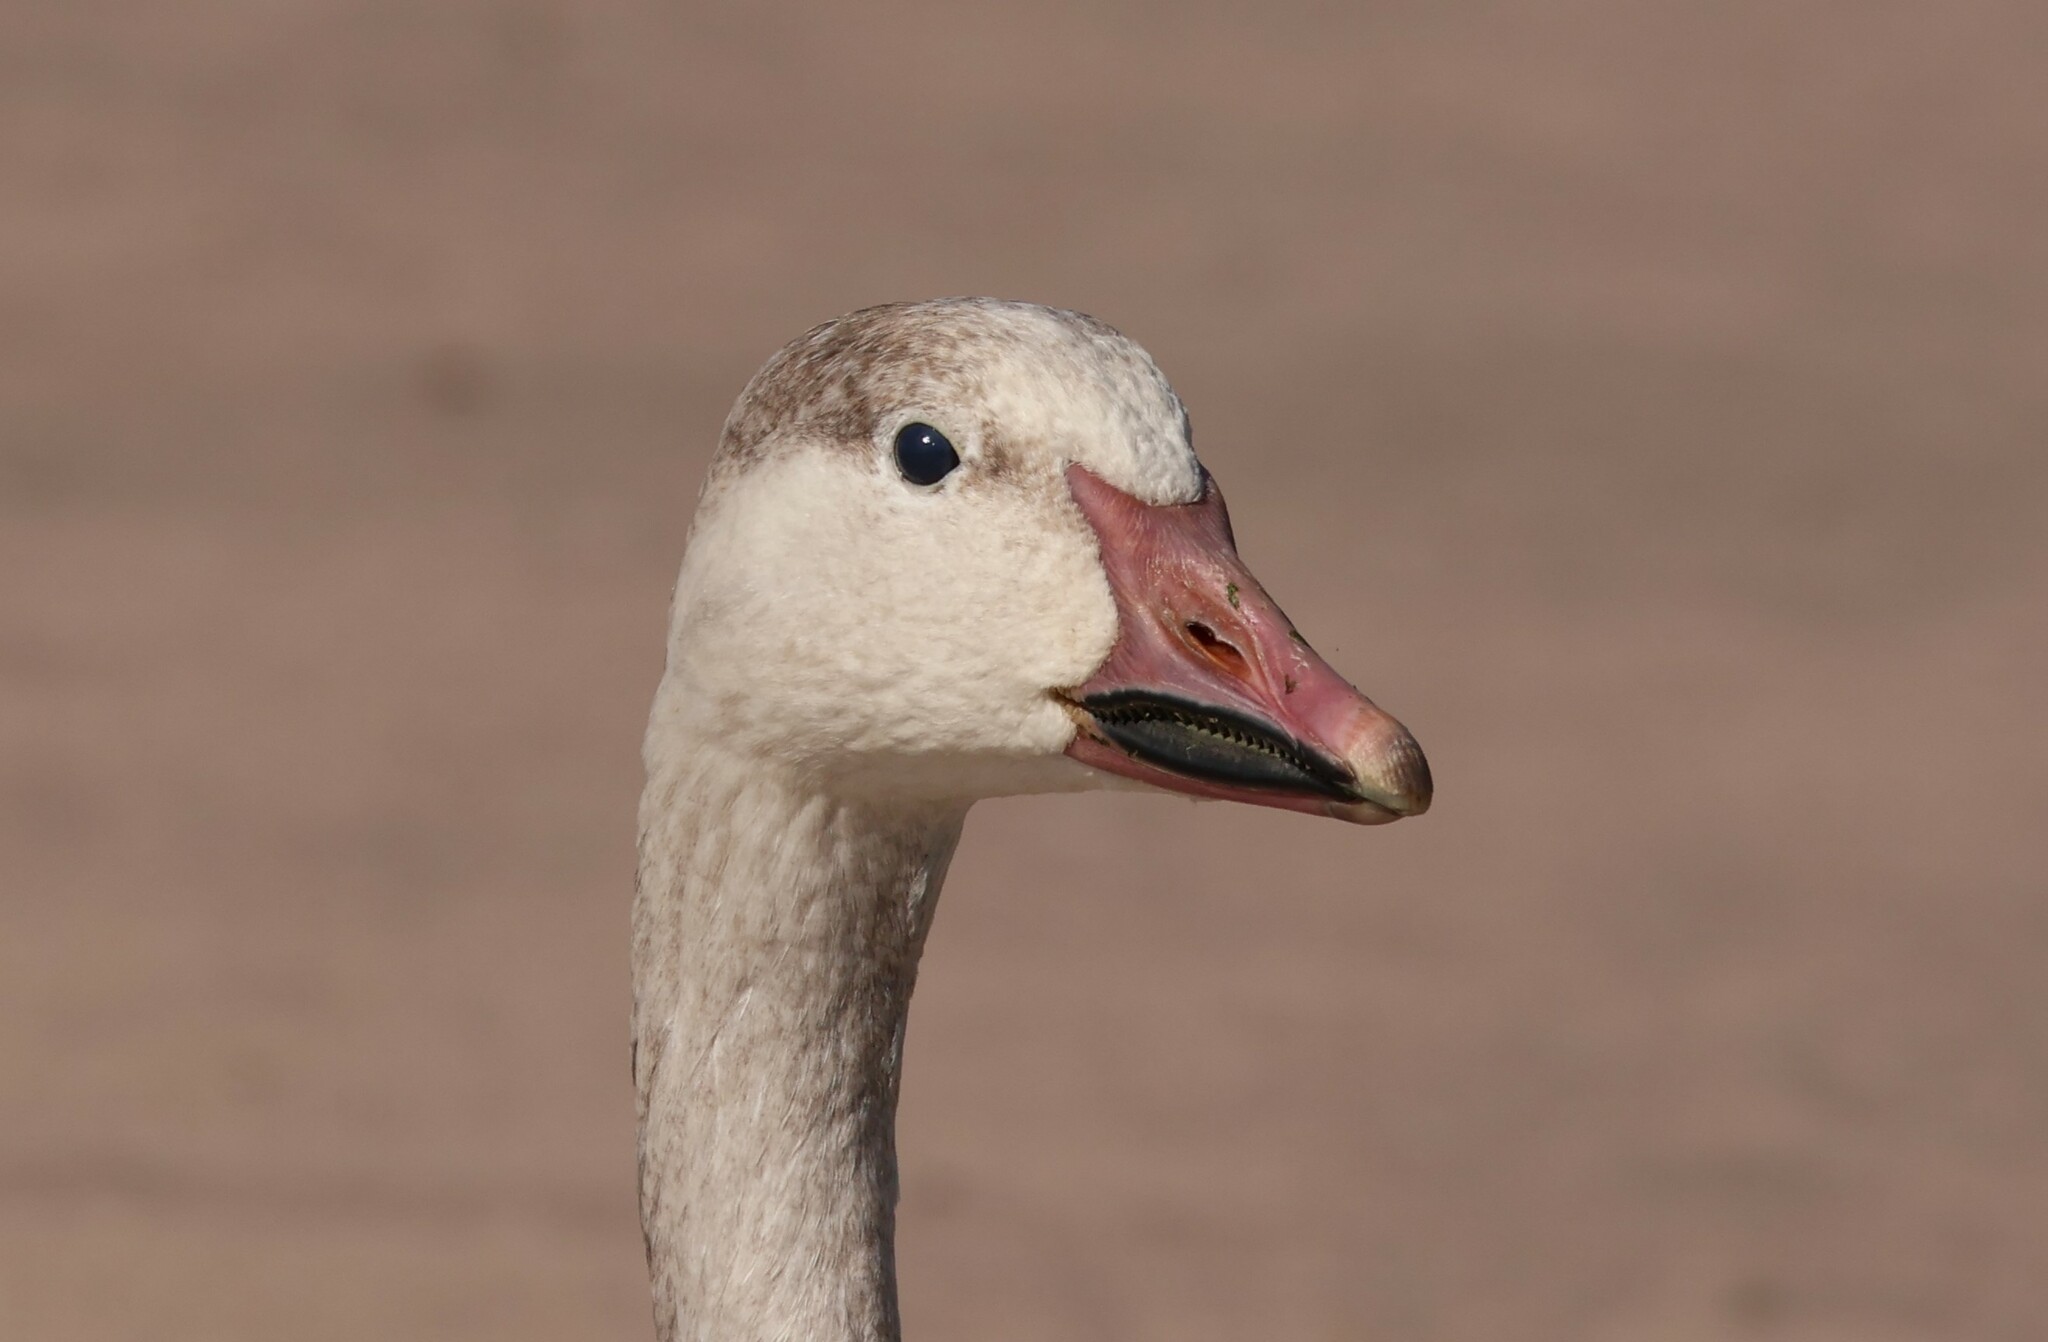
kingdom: Animalia
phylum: Chordata
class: Aves
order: Anseriformes
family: Anatidae
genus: Anser
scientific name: Anser caerulescens
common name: Snow goose
